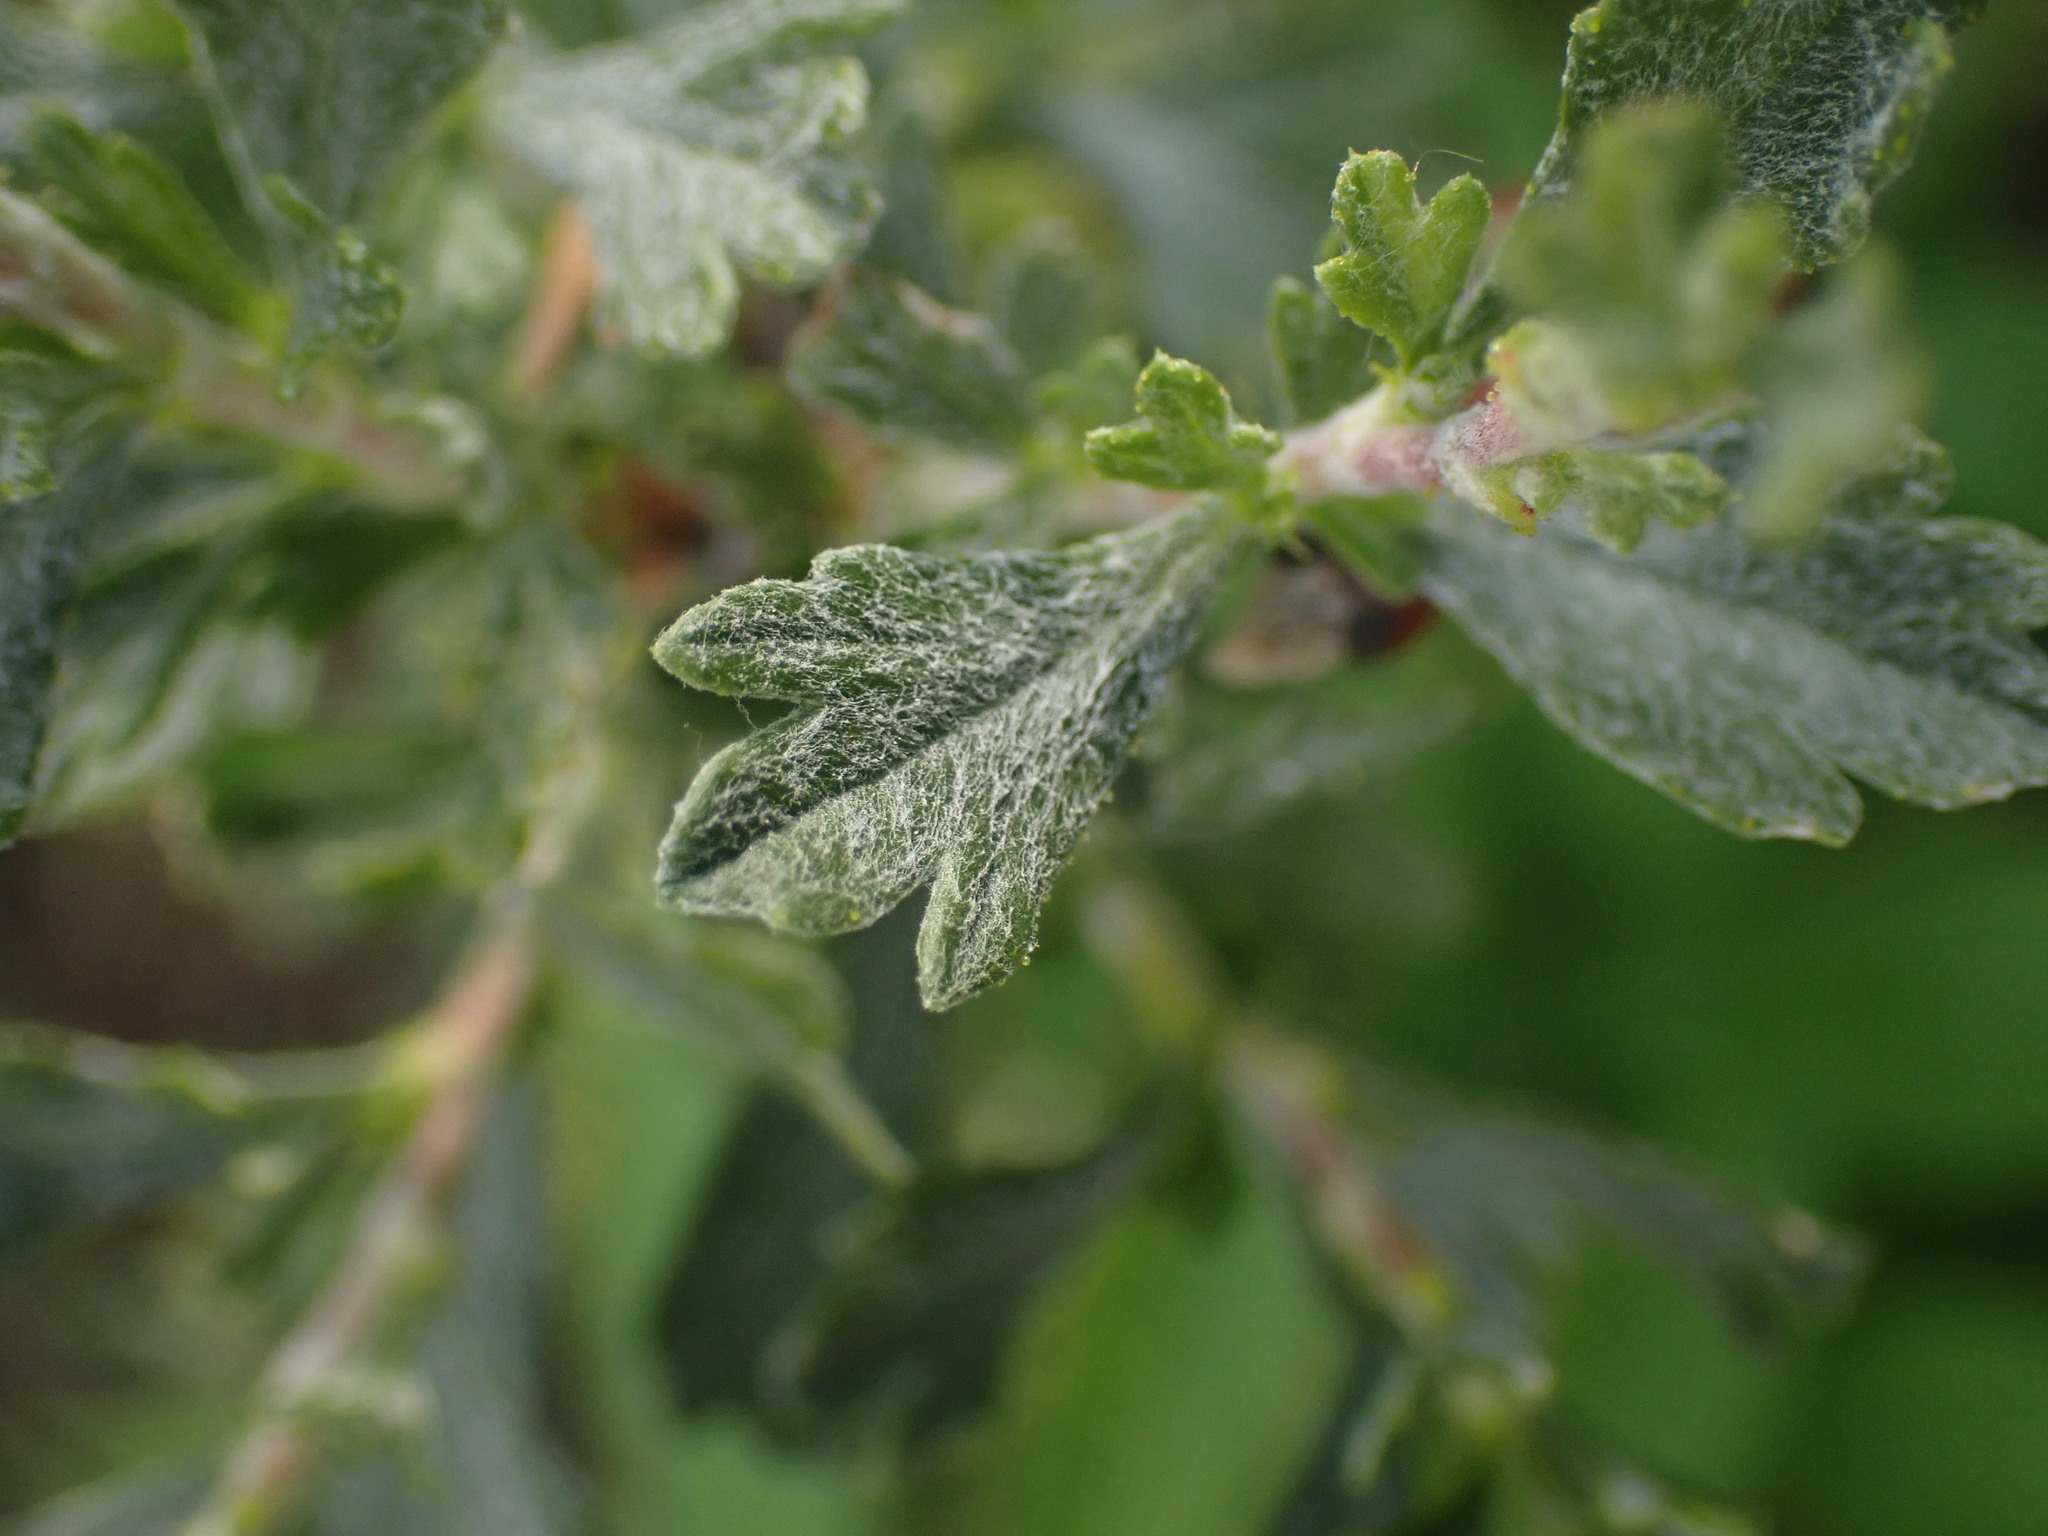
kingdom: Plantae
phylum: Tracheophyta
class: Magnoliopsida
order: Rosales
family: Rosaceae
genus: Purshia
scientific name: Purshia tridentata
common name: Antelope bitterbrush
